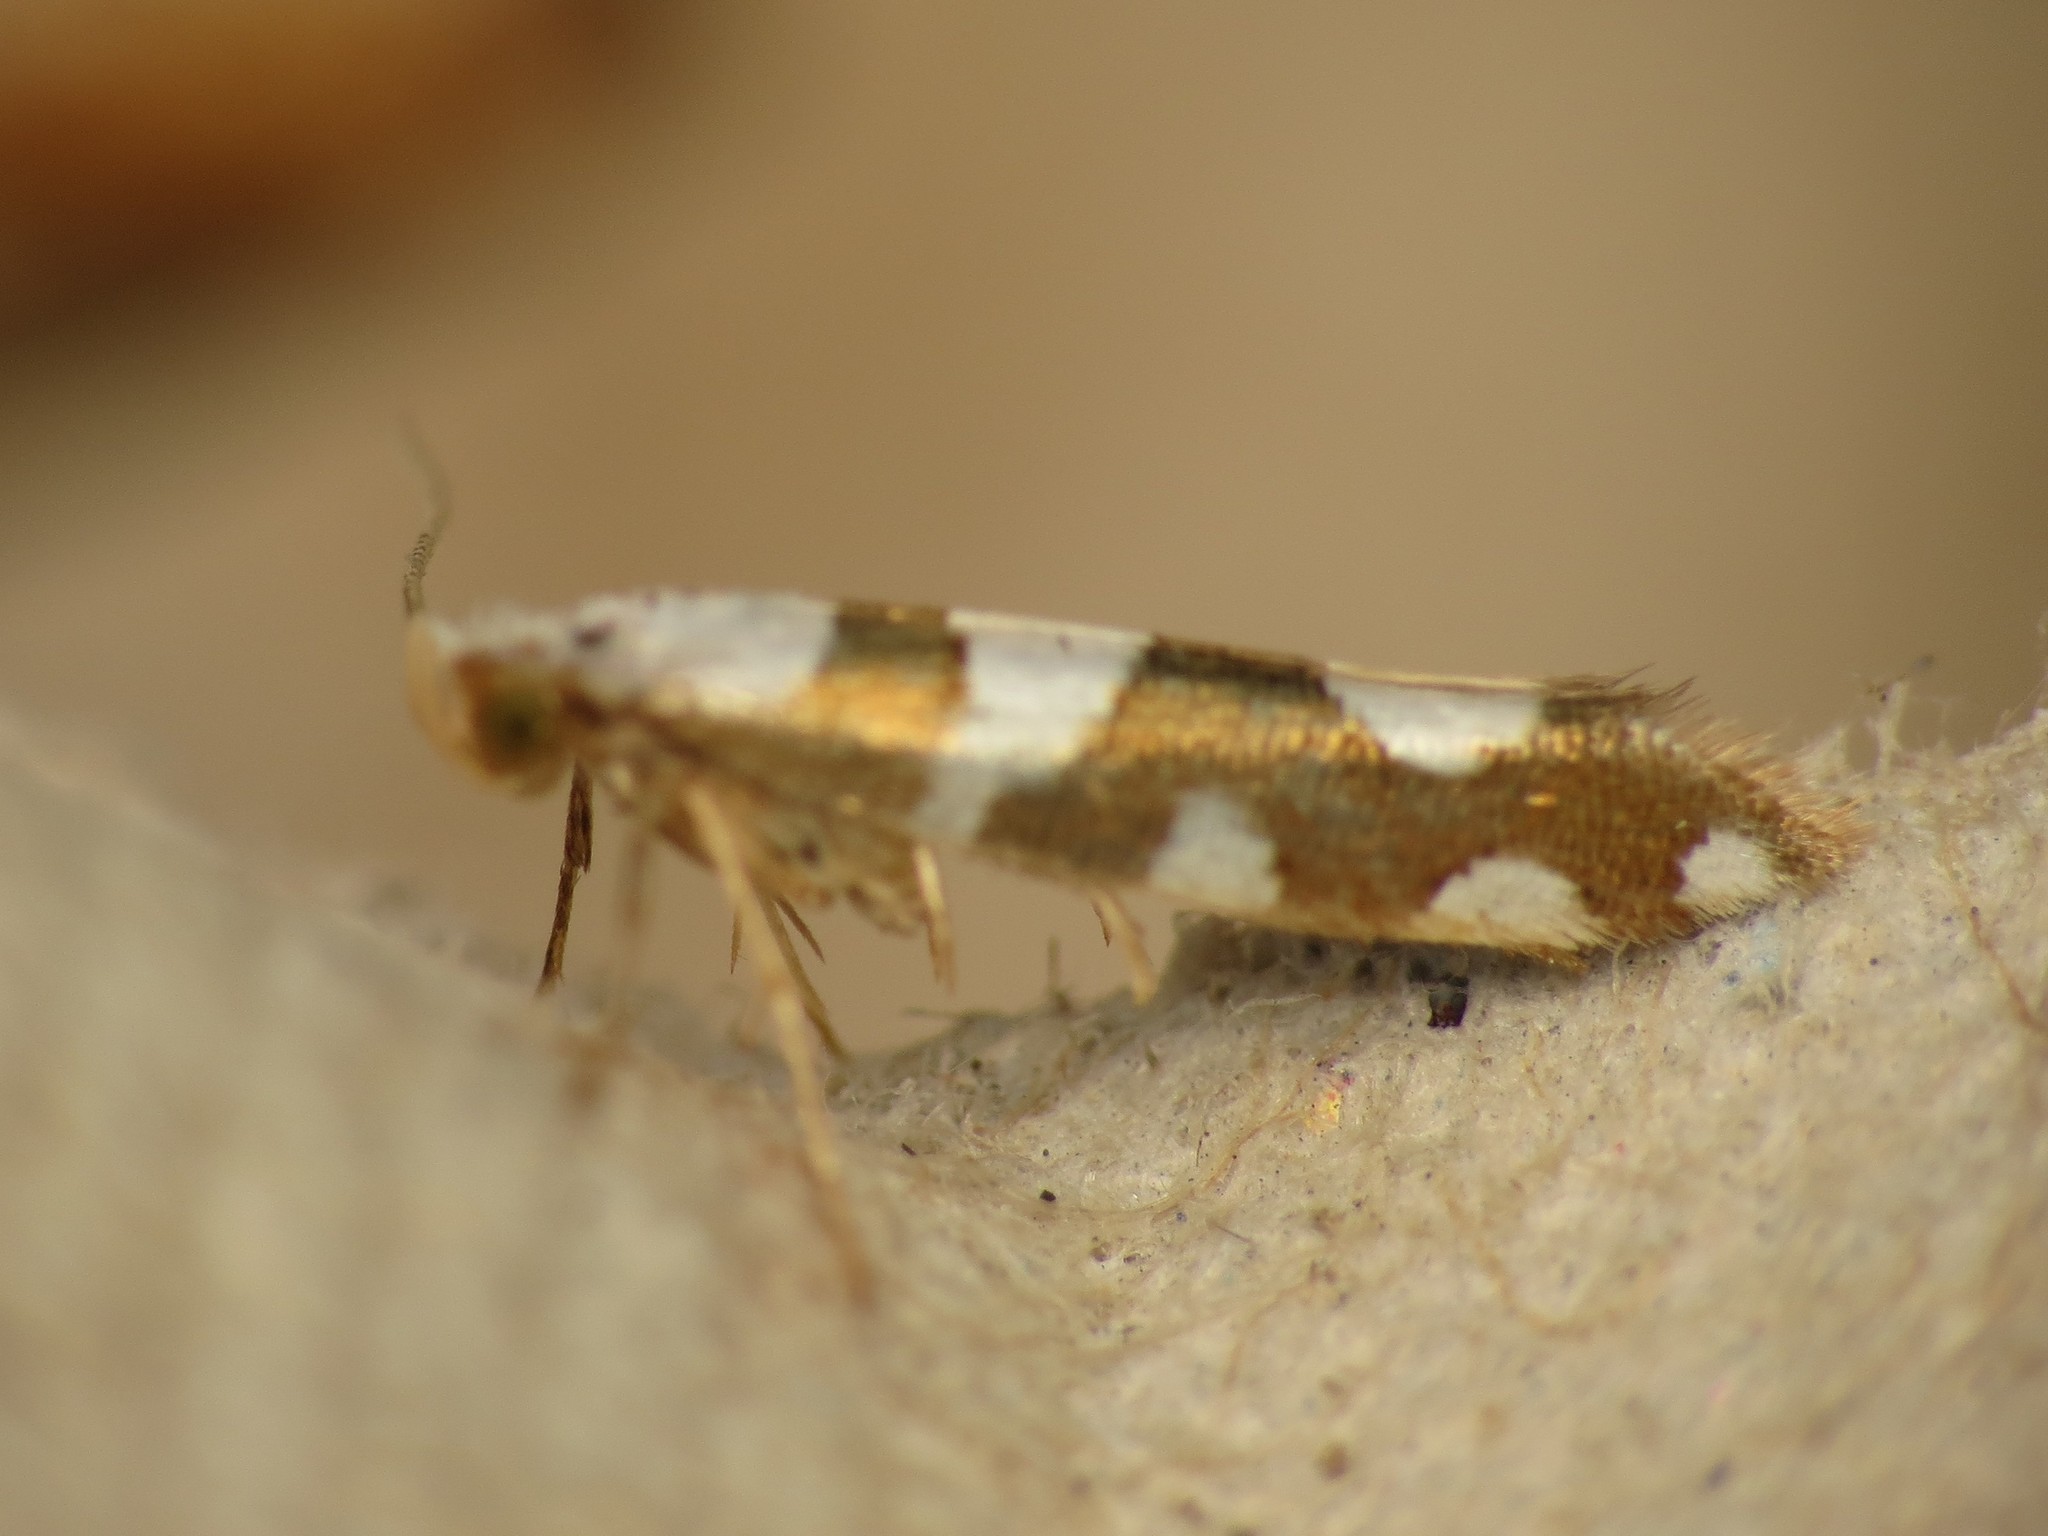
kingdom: Animalia
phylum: Arthropoda
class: Insecta
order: Lepidoptera
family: Argyresthiidae
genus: Argyresthia
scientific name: Argyresthia brockeella
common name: Gold-ribbon argent
